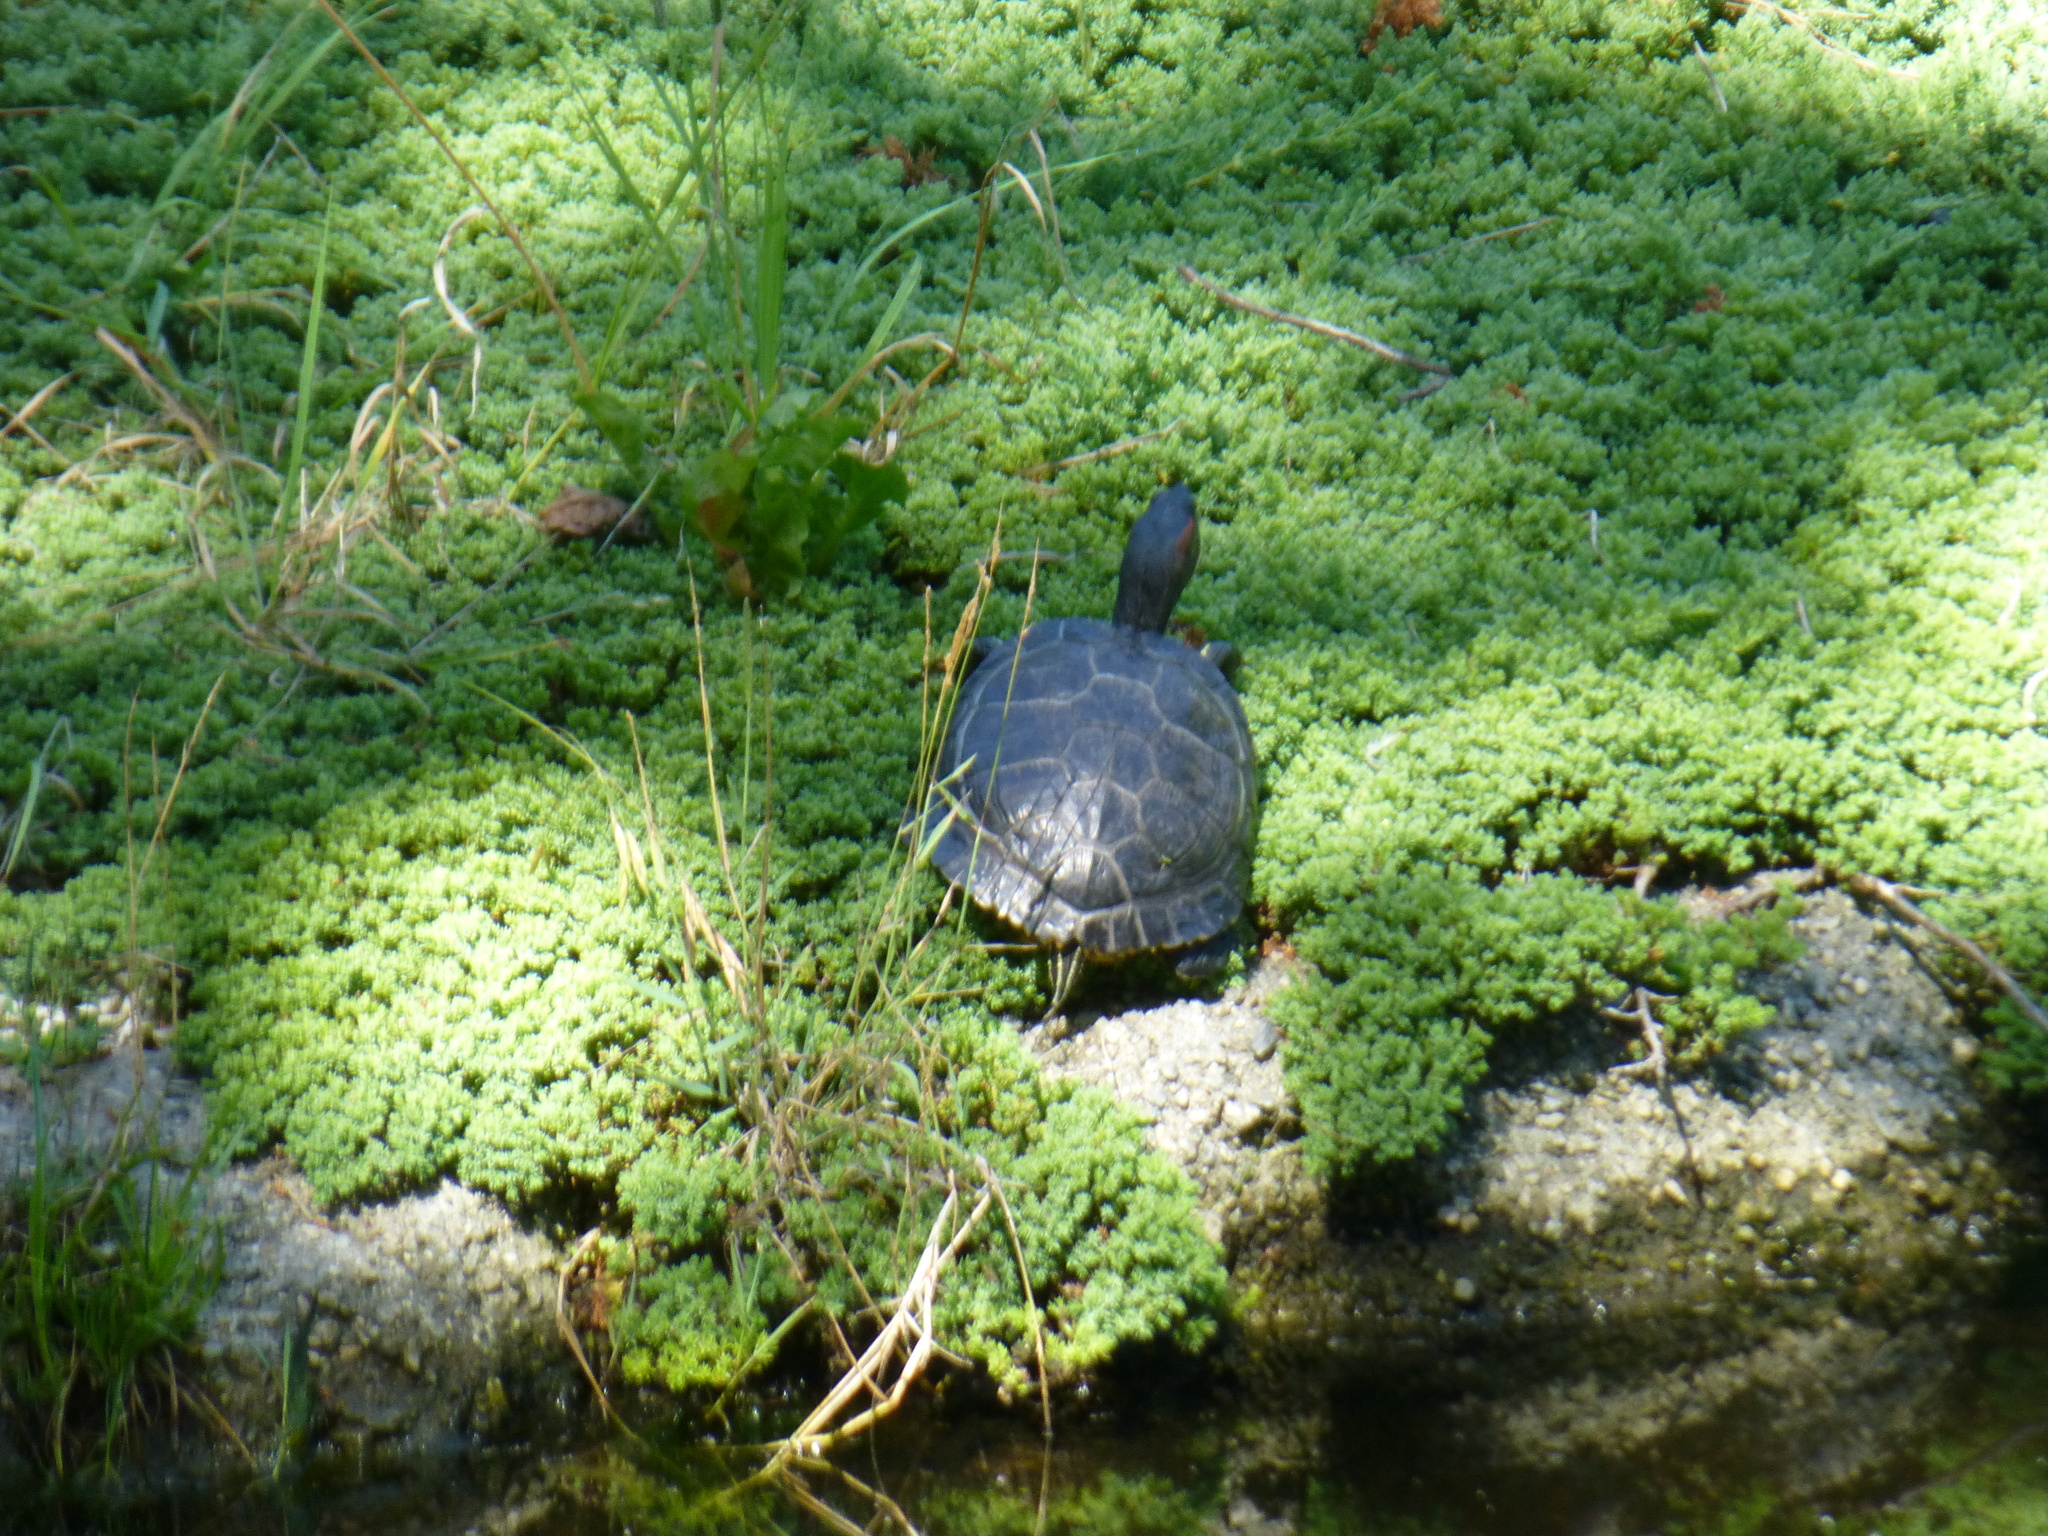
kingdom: Animalia
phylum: Chordata
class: Testudines
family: Emydidae
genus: Trachemys
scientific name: Trachemys scripta
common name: Slider
